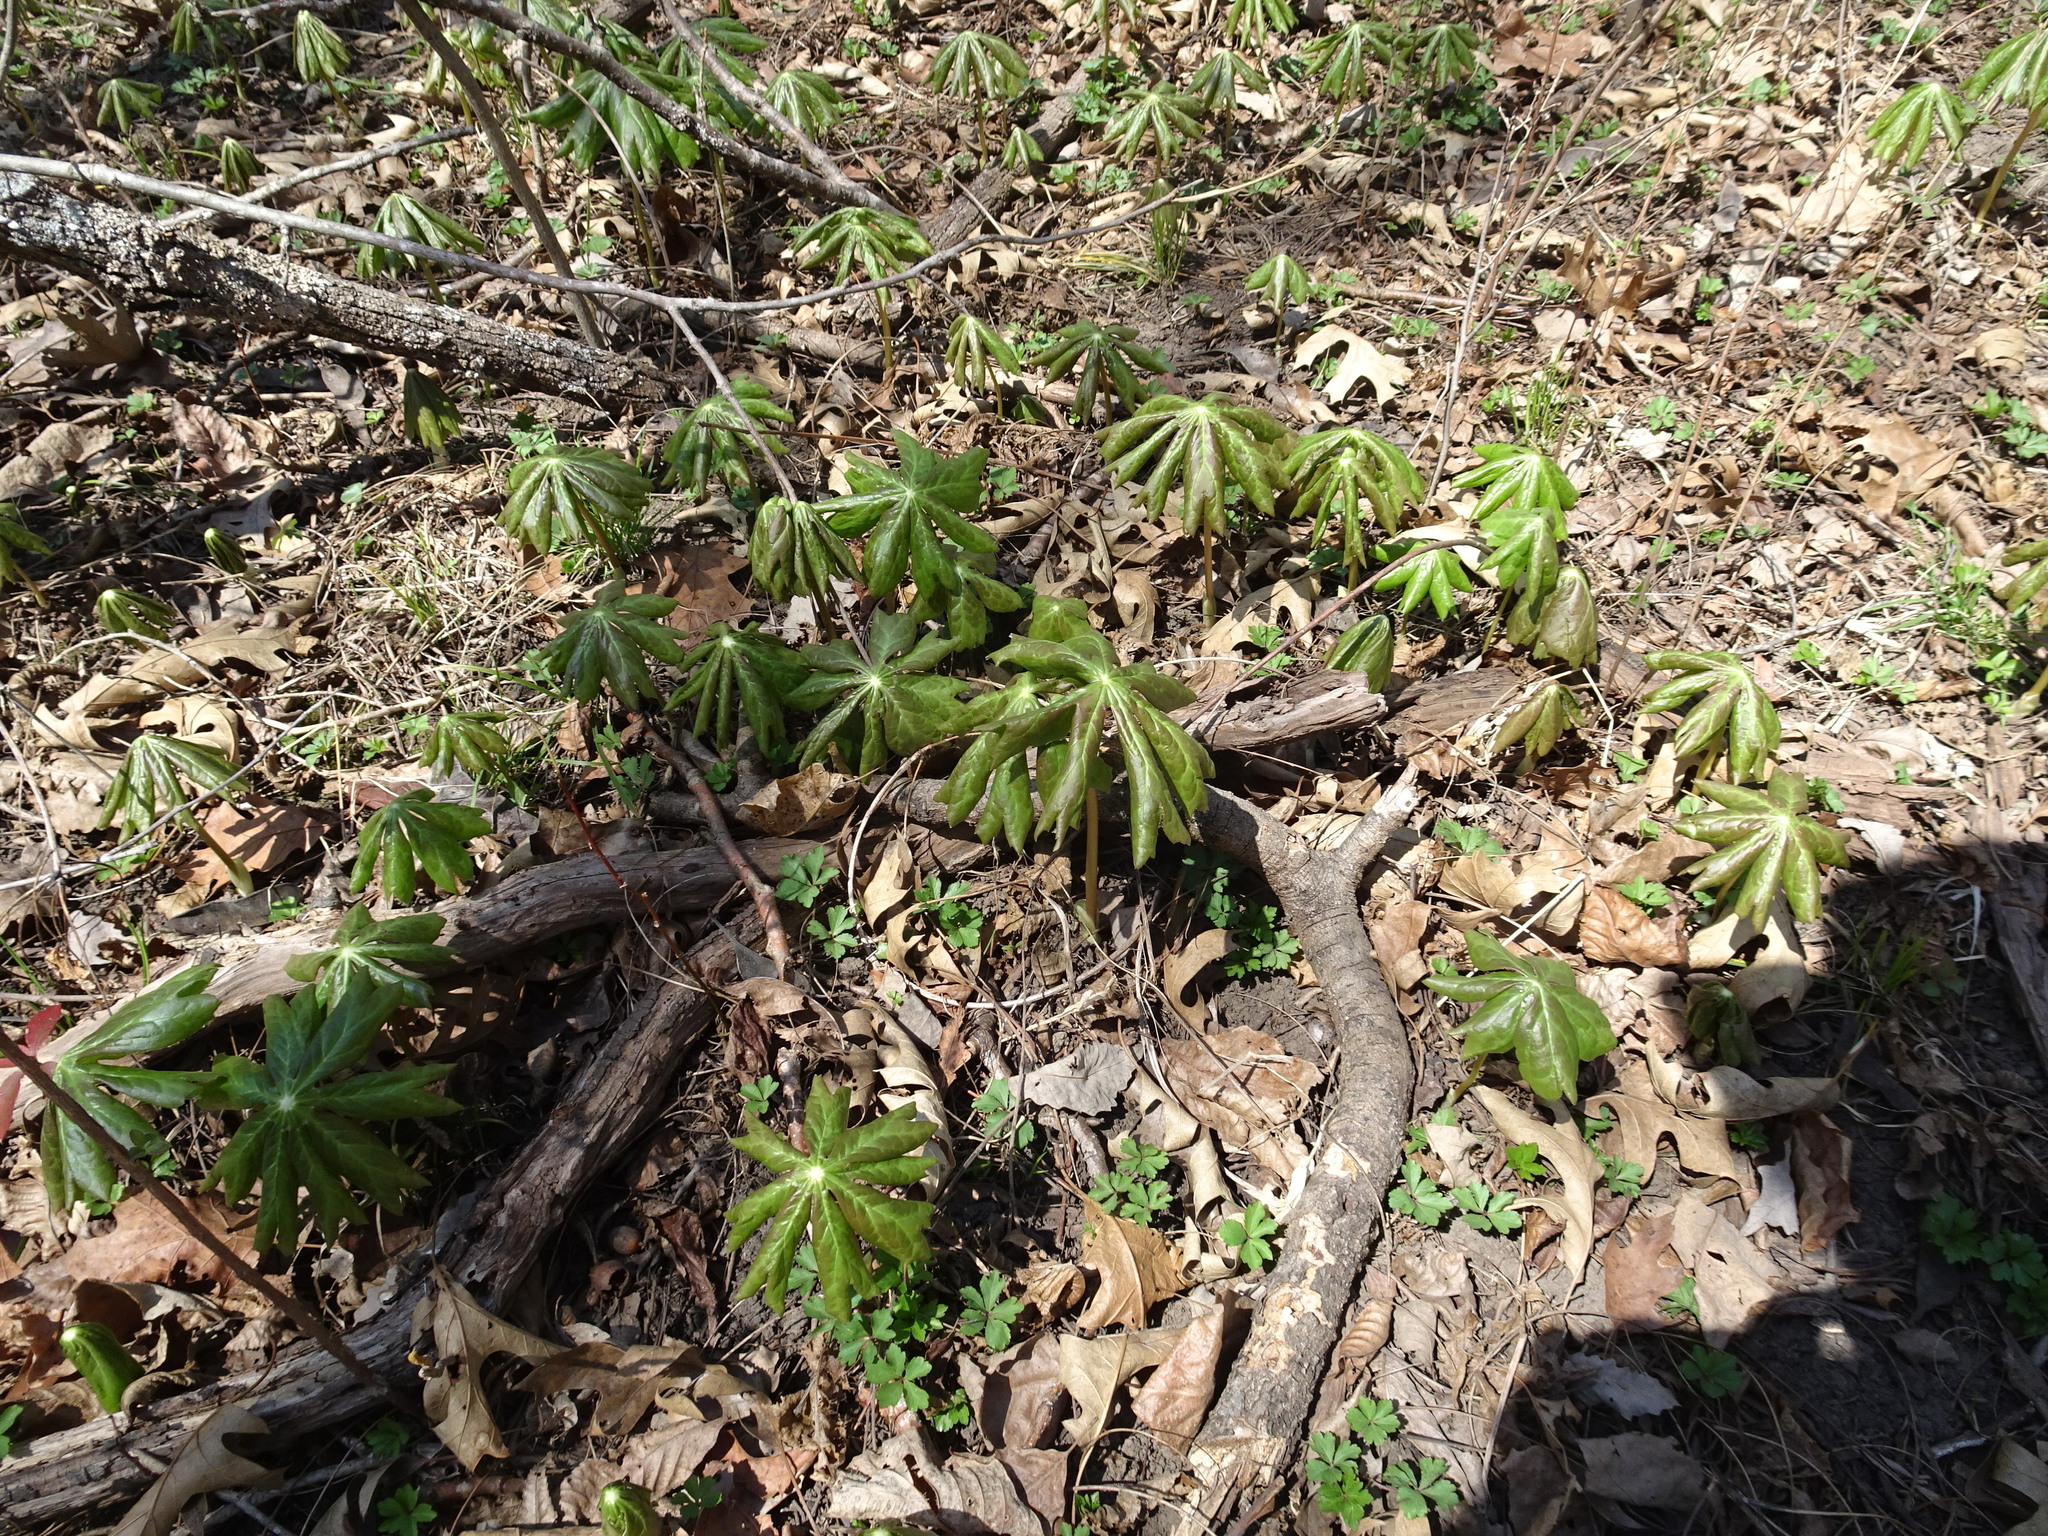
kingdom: Plantae
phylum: Tracheophyta
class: Magnoliopsida
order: Ranunculales
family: Berberidaceae
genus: Podophyllum
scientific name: Podophyllum peltatum
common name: Wild mandrake
